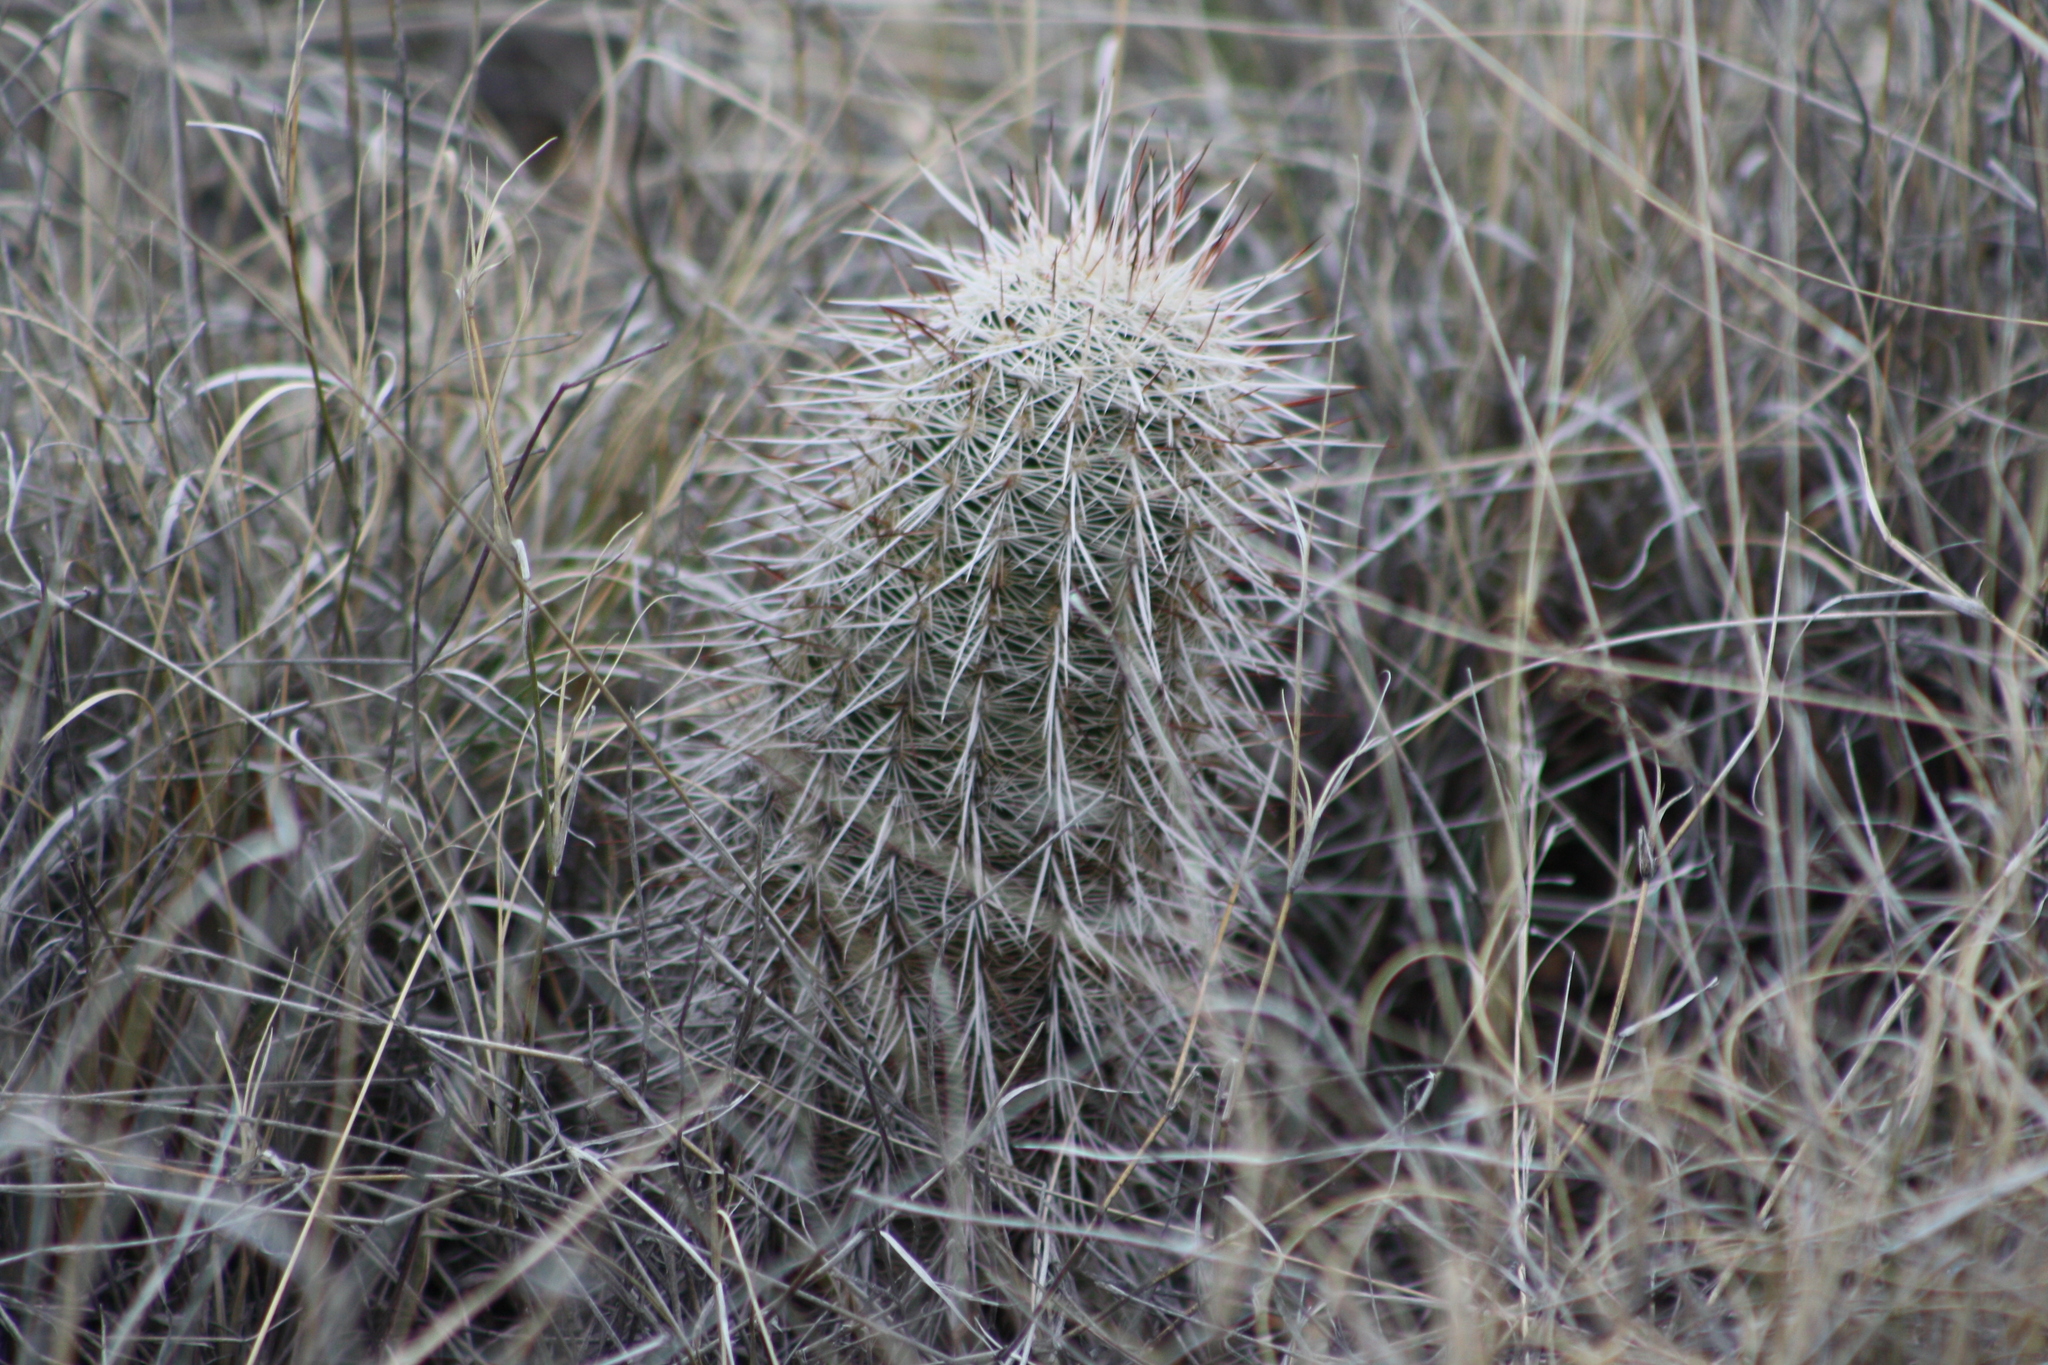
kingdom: Plantae
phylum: Tracheophyta
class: Magnoliopsida
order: Caryophyllales
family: Cactaceae
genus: Echinocereus
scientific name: Echinocereus viridiflorus
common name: Nylon hedgehog cactus
